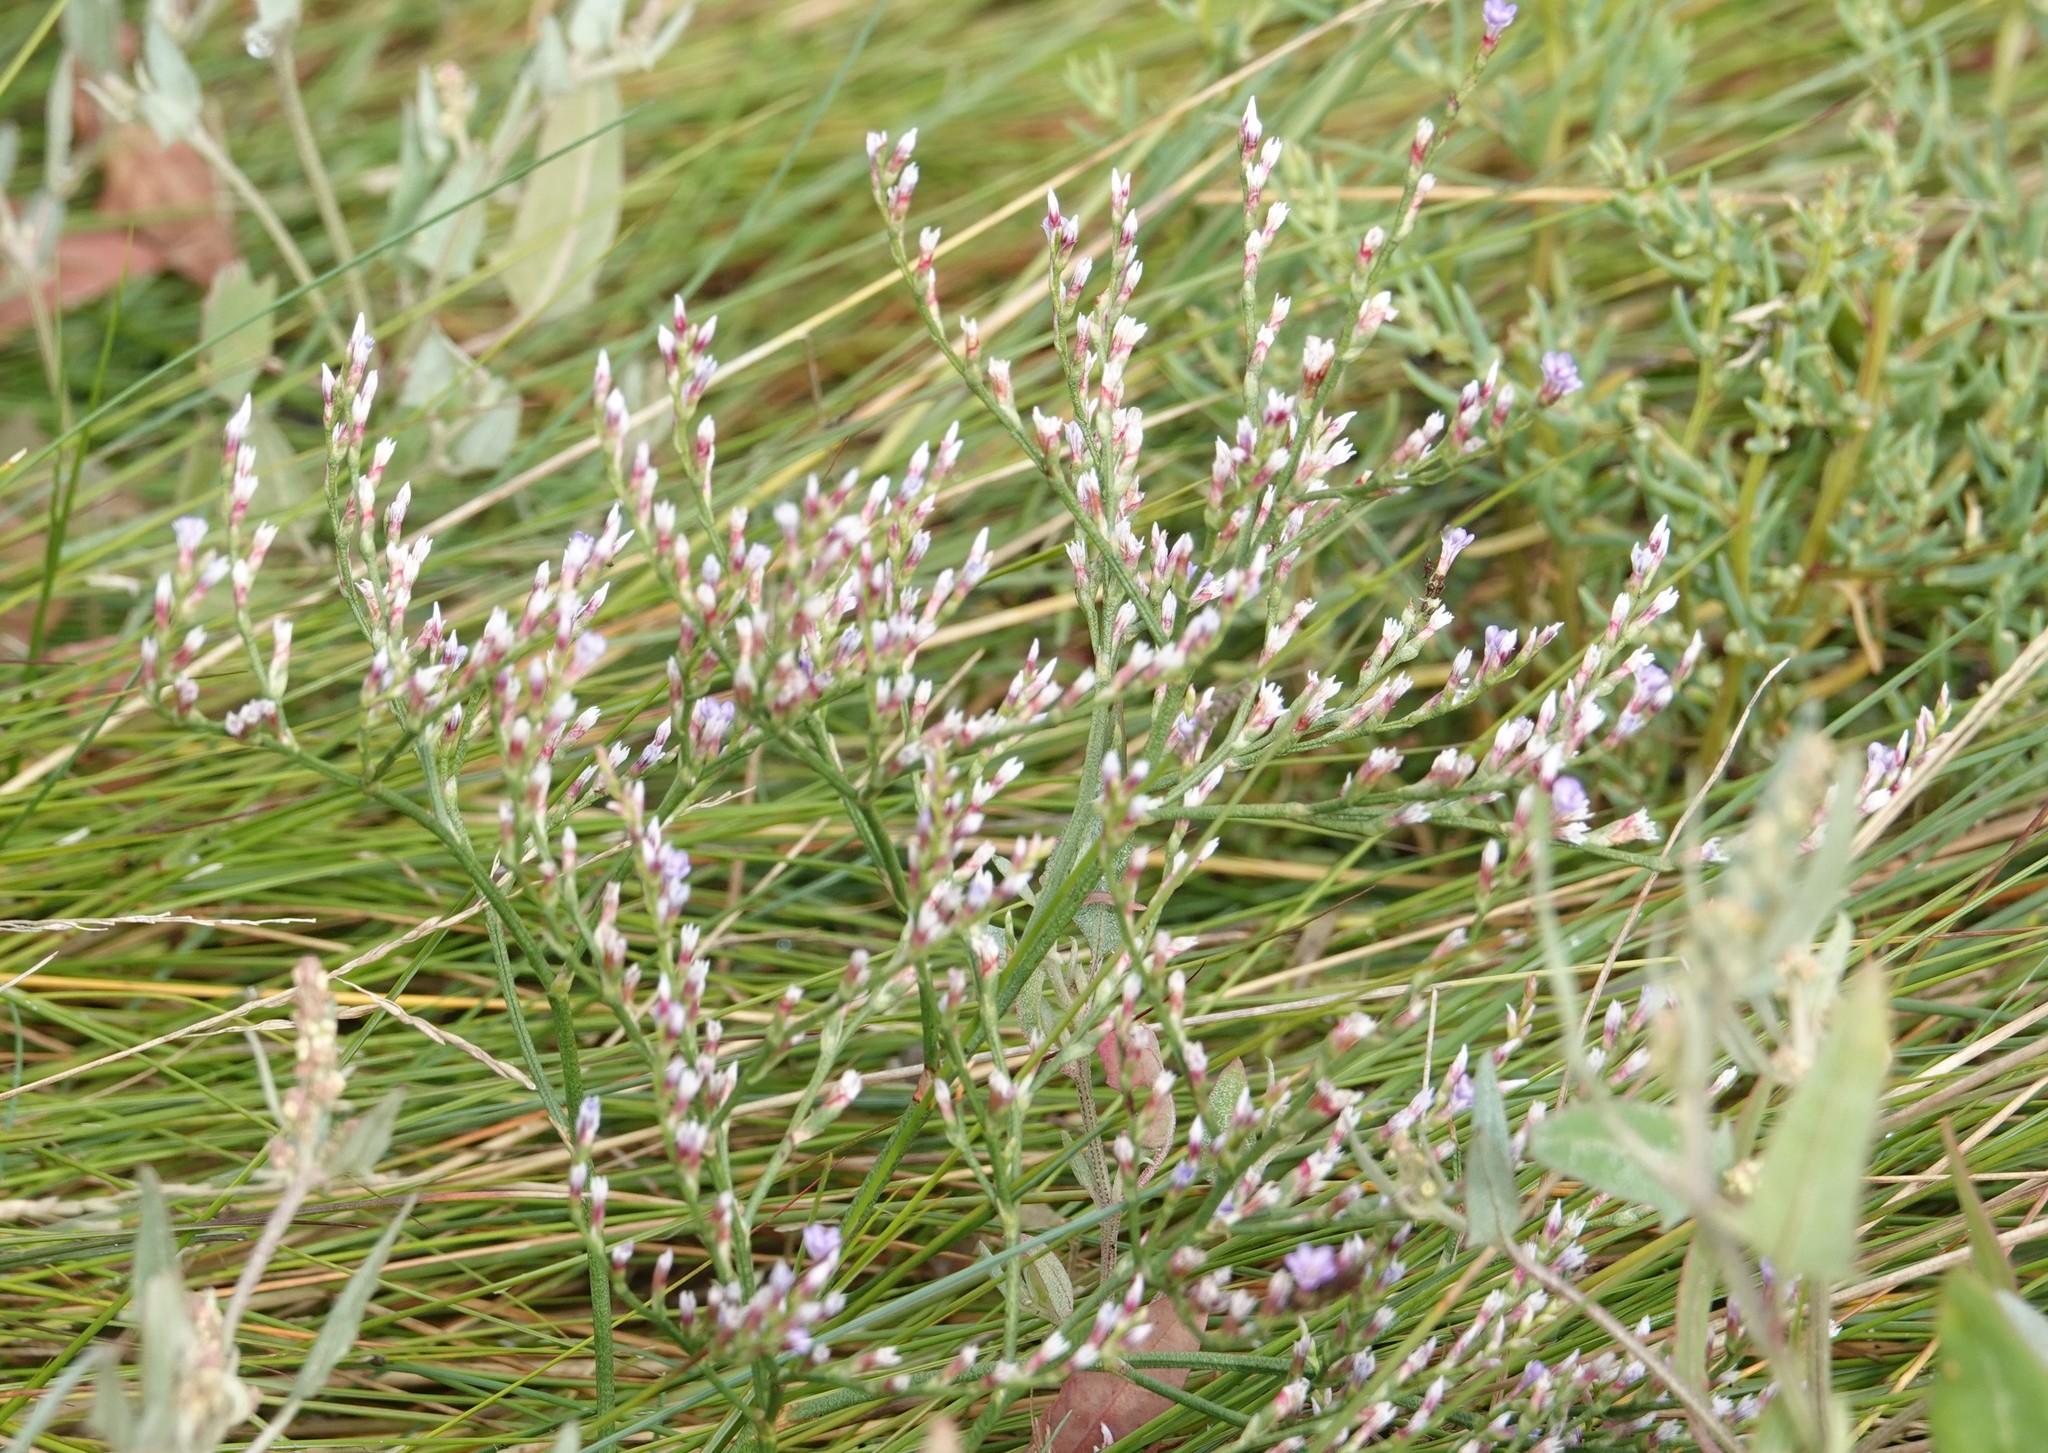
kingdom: Plantae
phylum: Tracheophyta
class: Magnoliopsida
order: Caryophyllales
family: Plumbaginaceae
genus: Limonium
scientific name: Limonium carolinianum
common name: Carolina sea lavender
